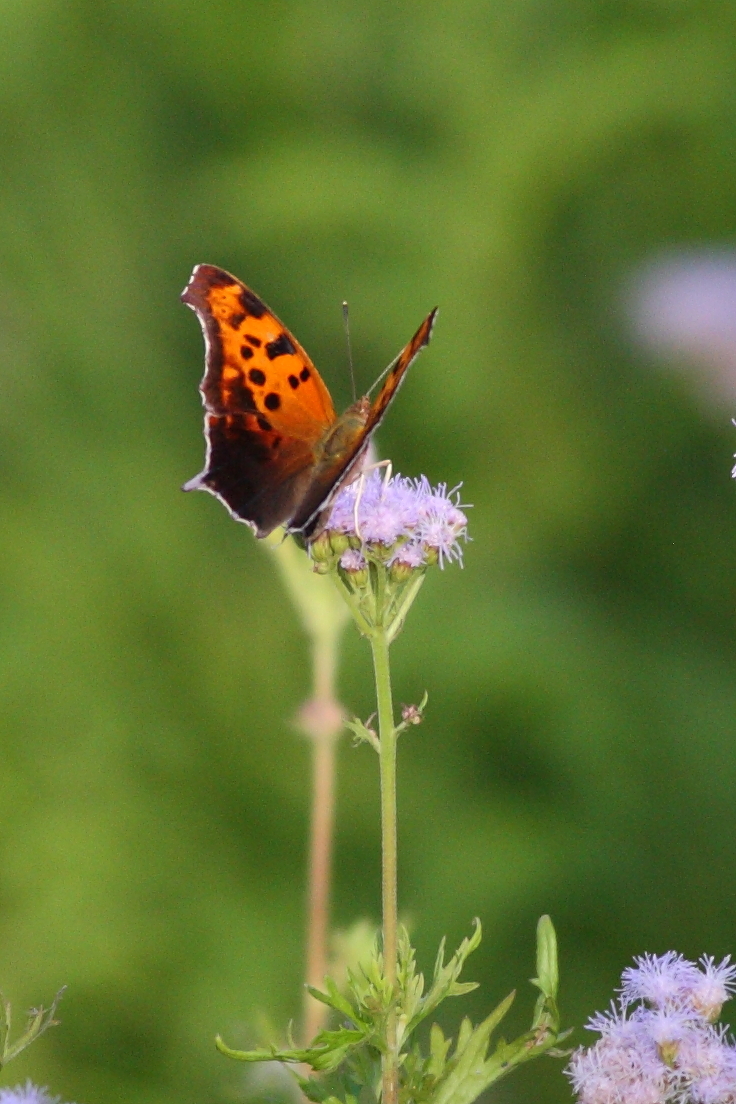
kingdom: Animalia
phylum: Arthropoda
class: Insecta
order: Lepidoptera
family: Nymphalidae
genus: Polygonia
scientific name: Polygonia interrogationis
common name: Question mark
